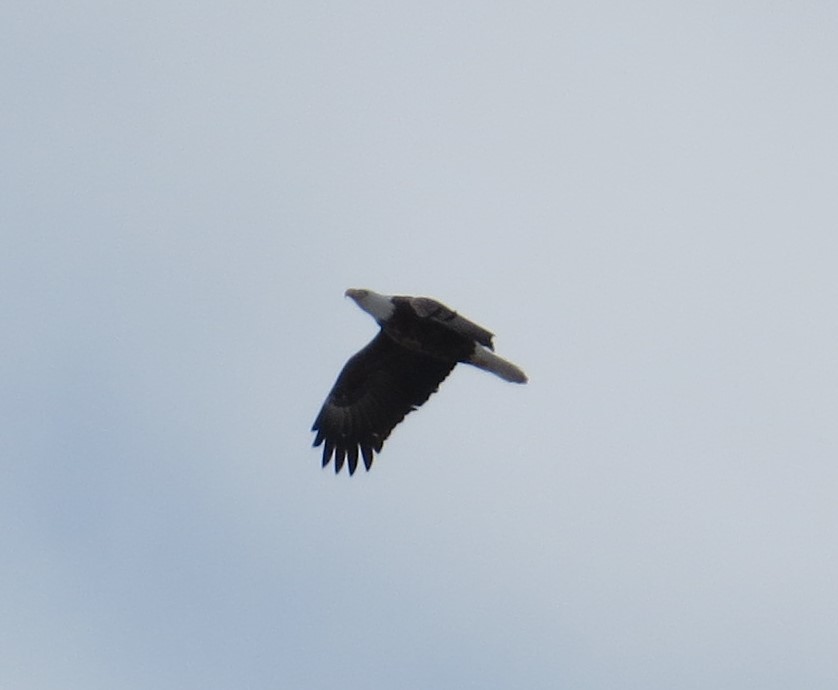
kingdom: Animalia
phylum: Chordata
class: Aves
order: Accipitriformes
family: Accipitridae
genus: Haliaeetus
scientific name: Haliaeetus leucocephalus
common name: Bald eagle
